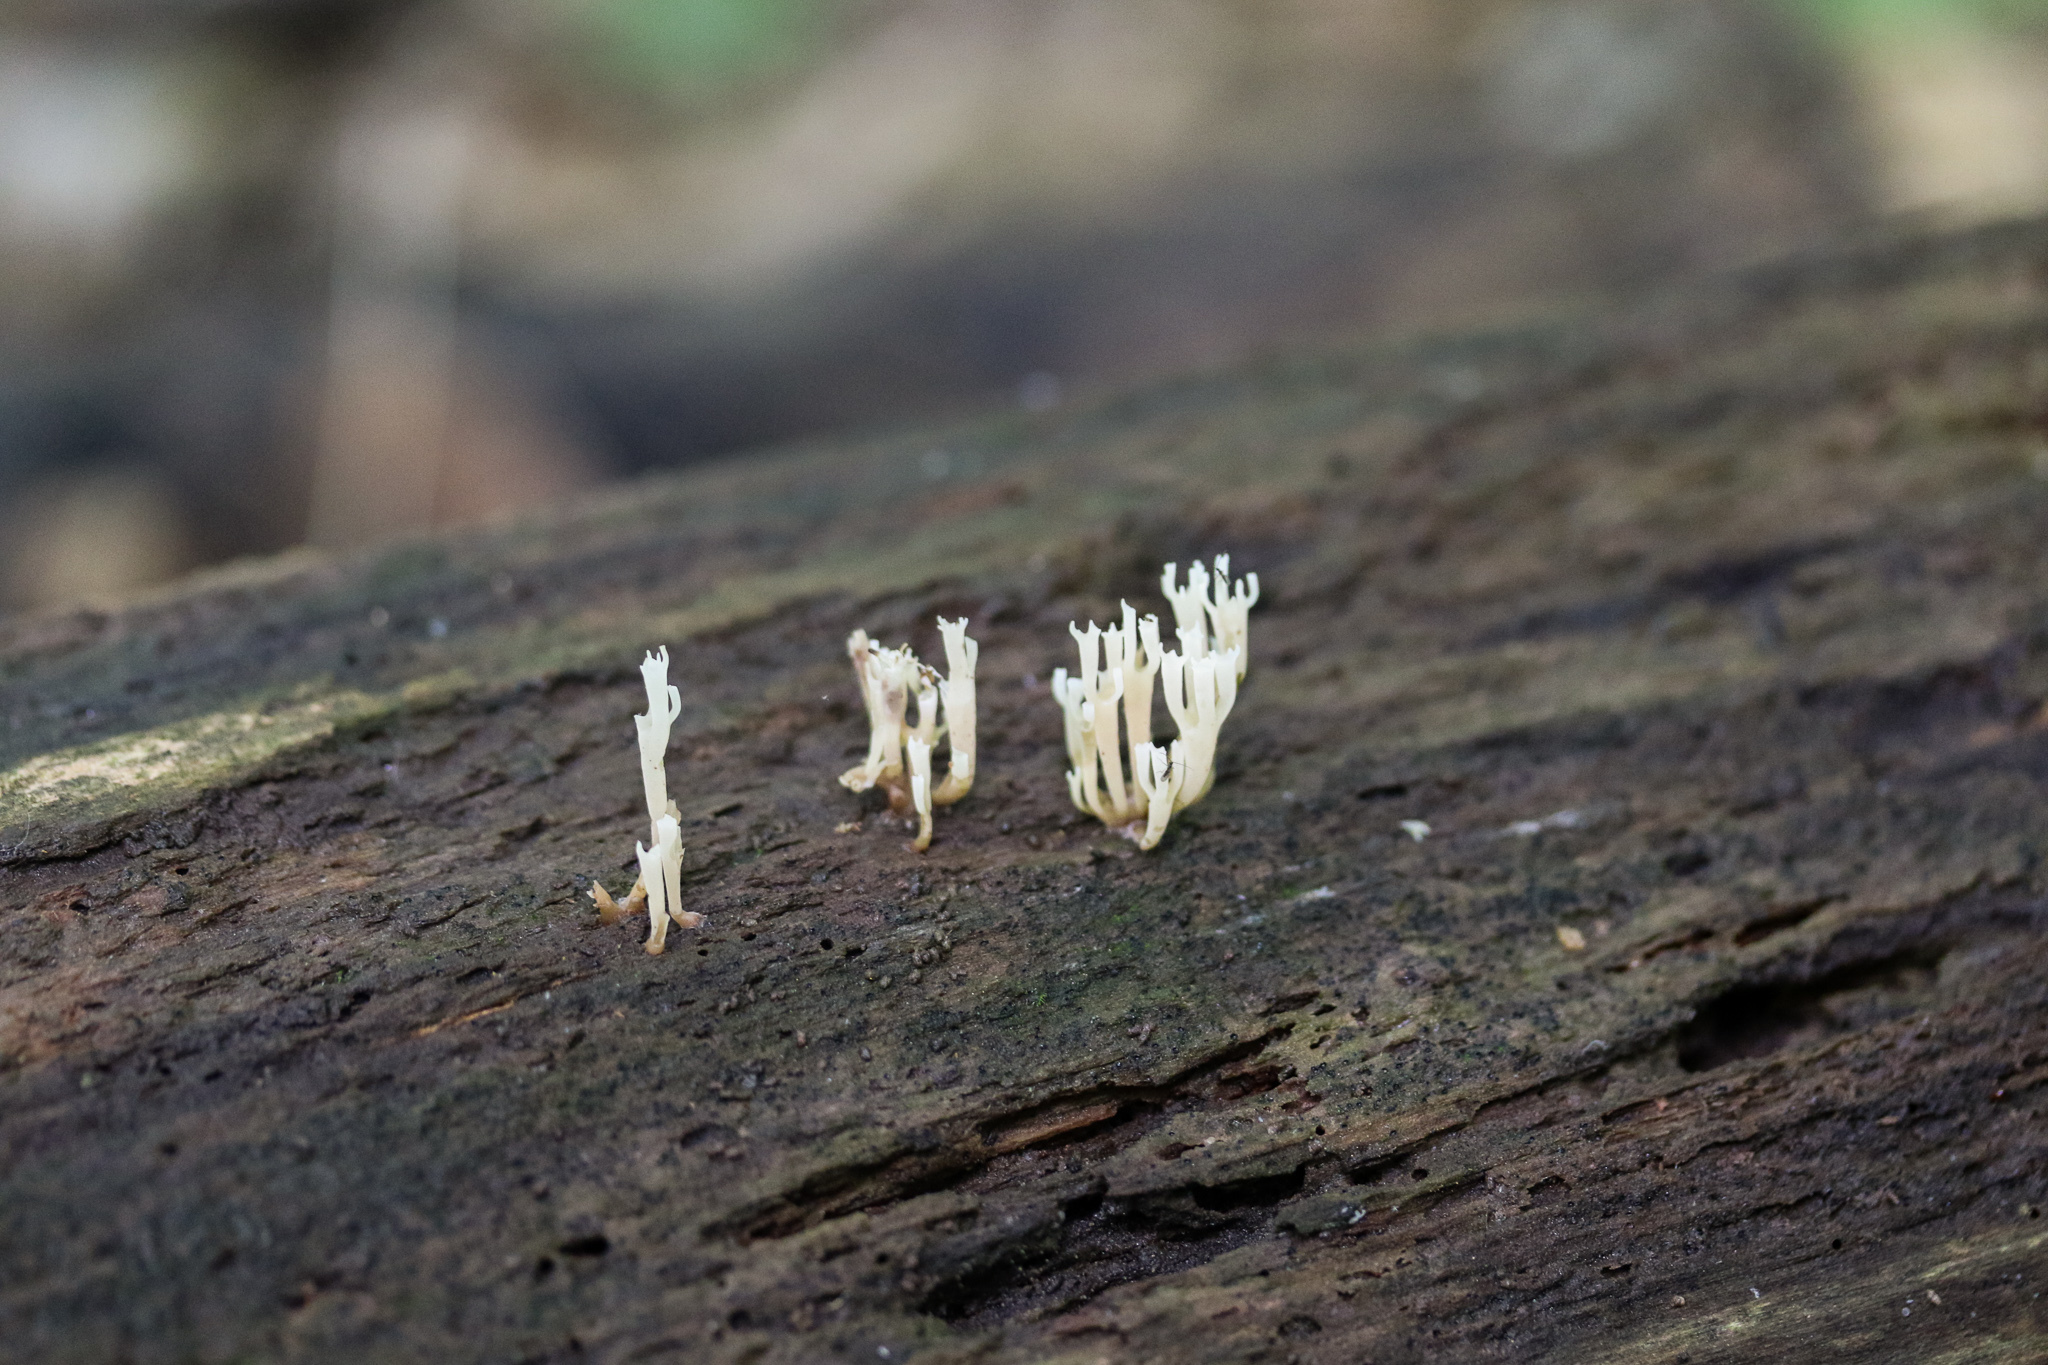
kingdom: Fungi
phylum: Basidiomycota
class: Agaricomycetes
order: Russulales
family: Auriscalpiaceae
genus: Artomyces
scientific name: Artomyces pyxidatus
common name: Crown-tipped coral fungus
